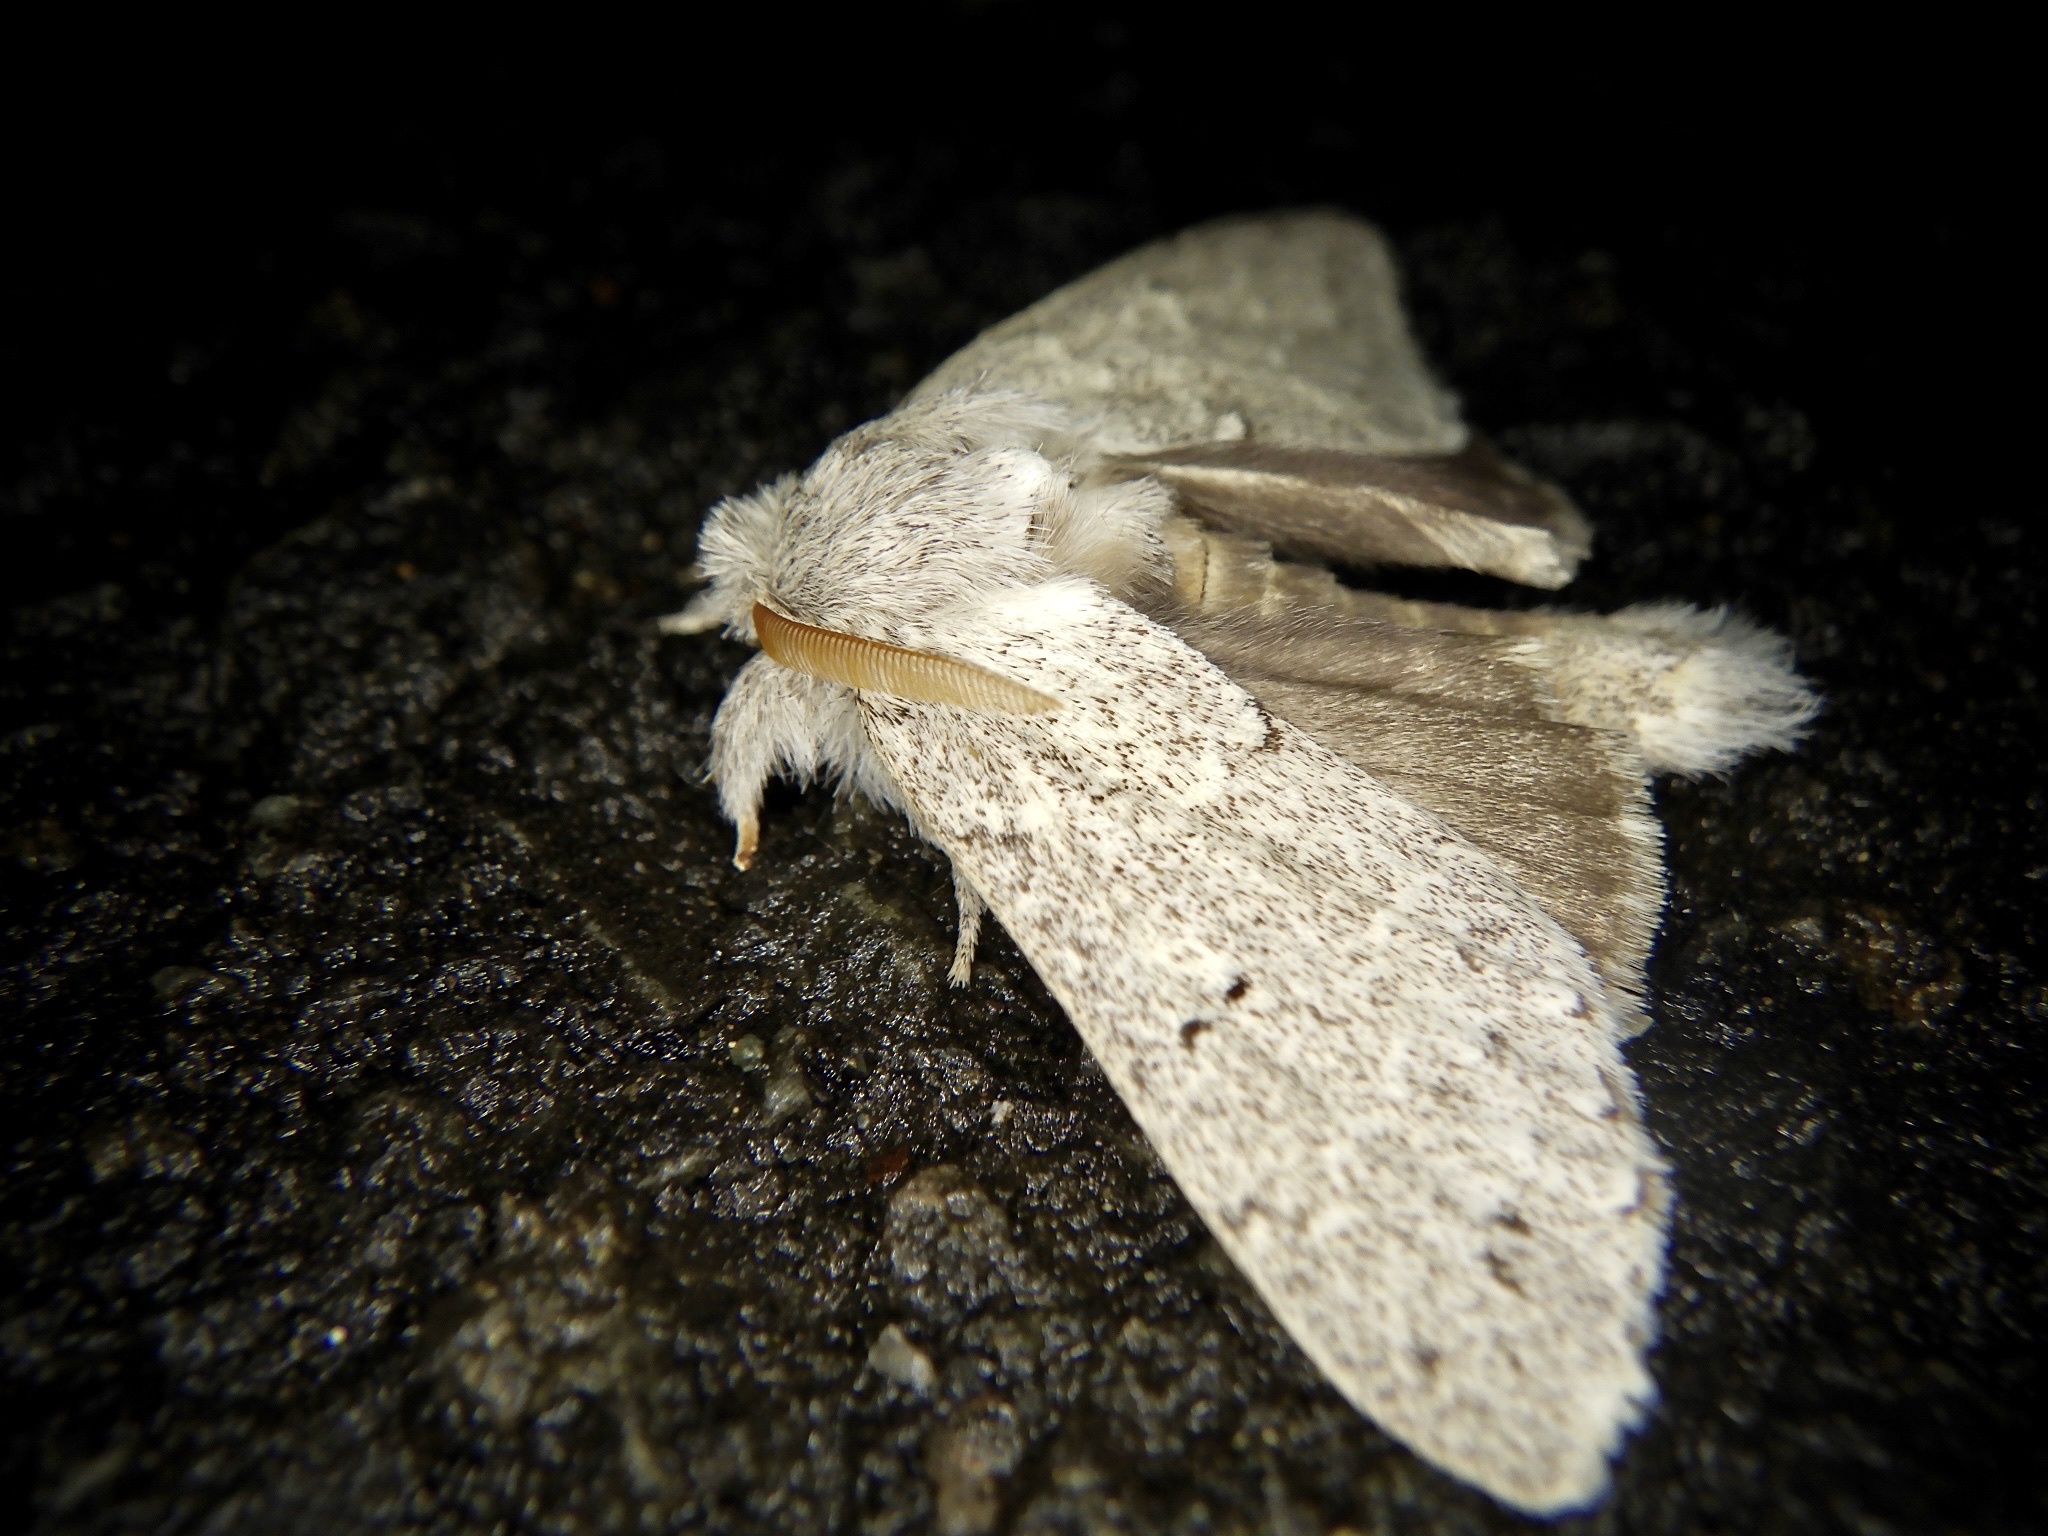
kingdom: Animalia
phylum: Arthropoda
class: Insecta
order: Lepidoptera
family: Notodontidae
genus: Cnethodonta
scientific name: Cnethodonta grisescens
